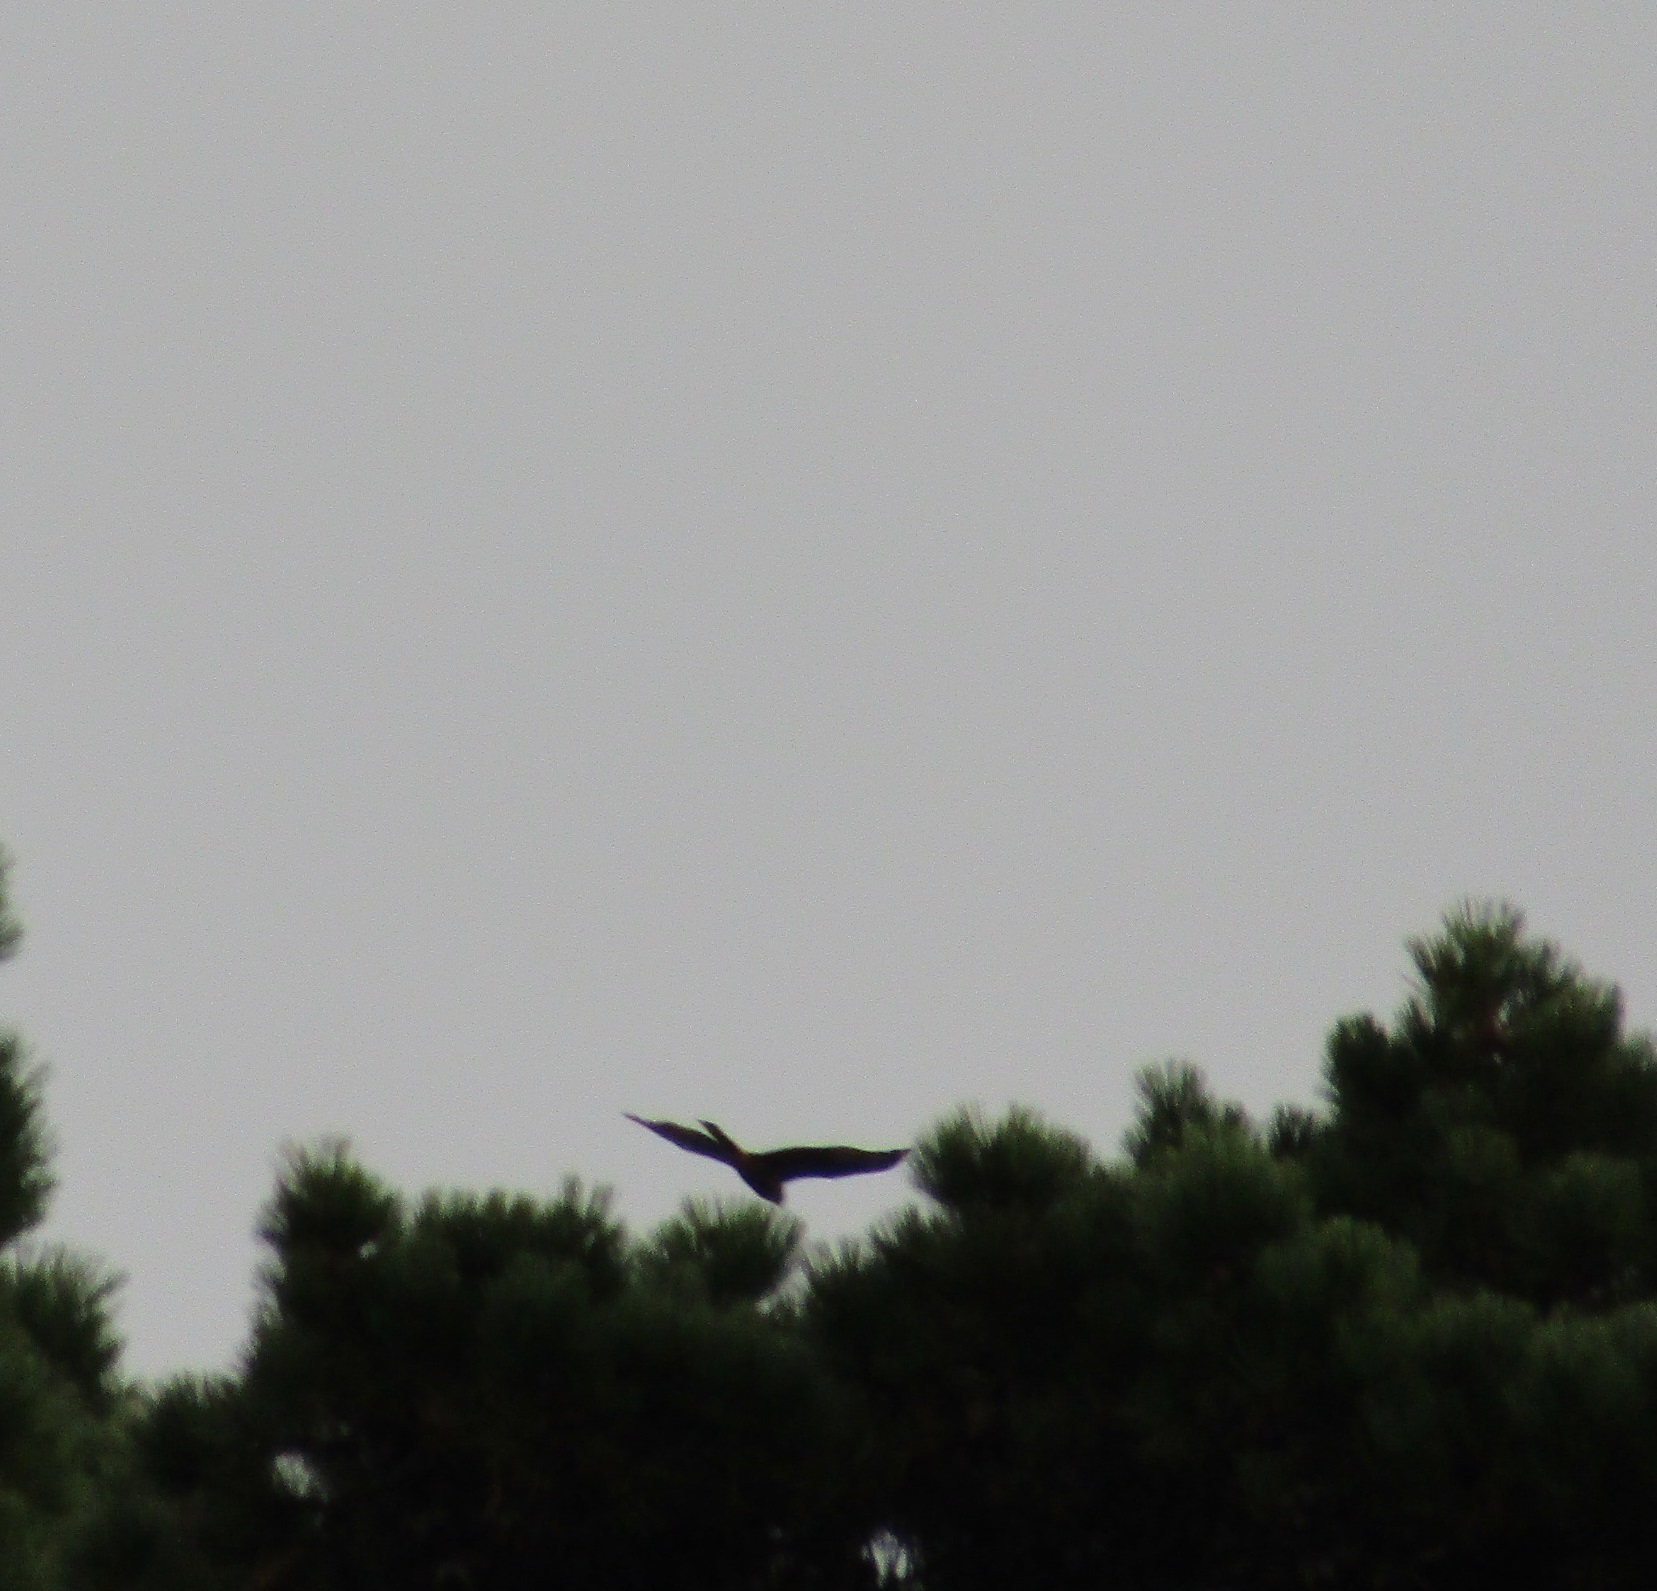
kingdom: Animalia
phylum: Chordata
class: Aves
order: Accipitriformes
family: Accipitridae
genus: Circus
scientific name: Circus approximans
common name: Swamp harrier
